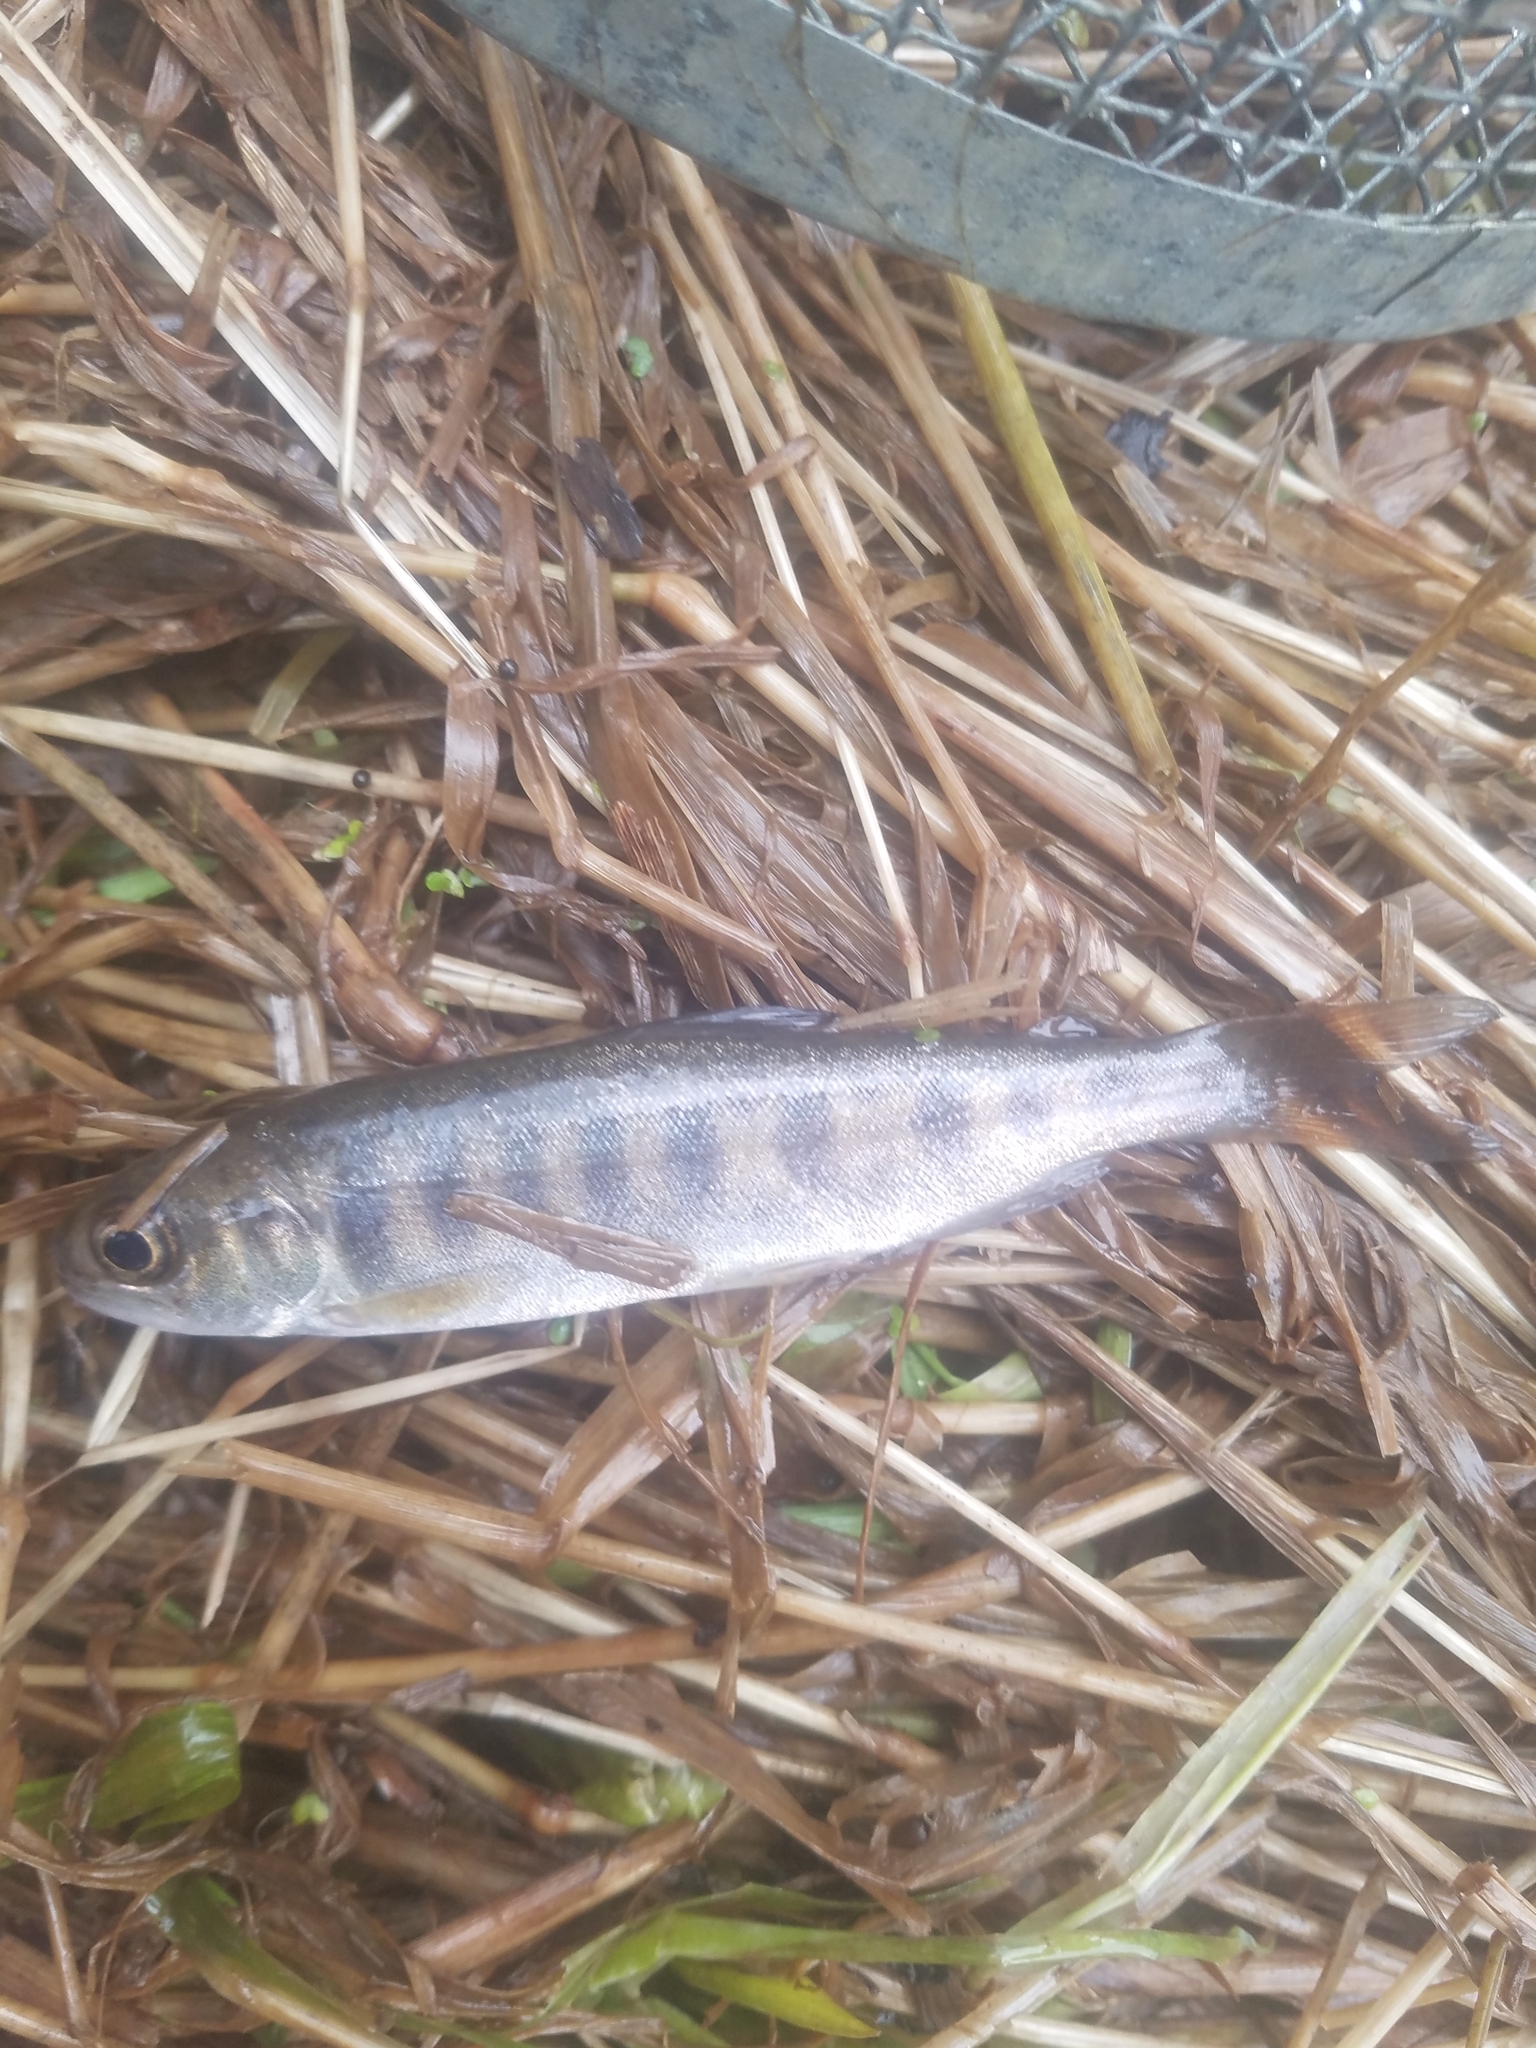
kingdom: Animalia
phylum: Chordata
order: Salmoniformes
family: Salmonidae
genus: Oncorhynchus
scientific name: Oncorhynchus kisutch
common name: Coho salmon
